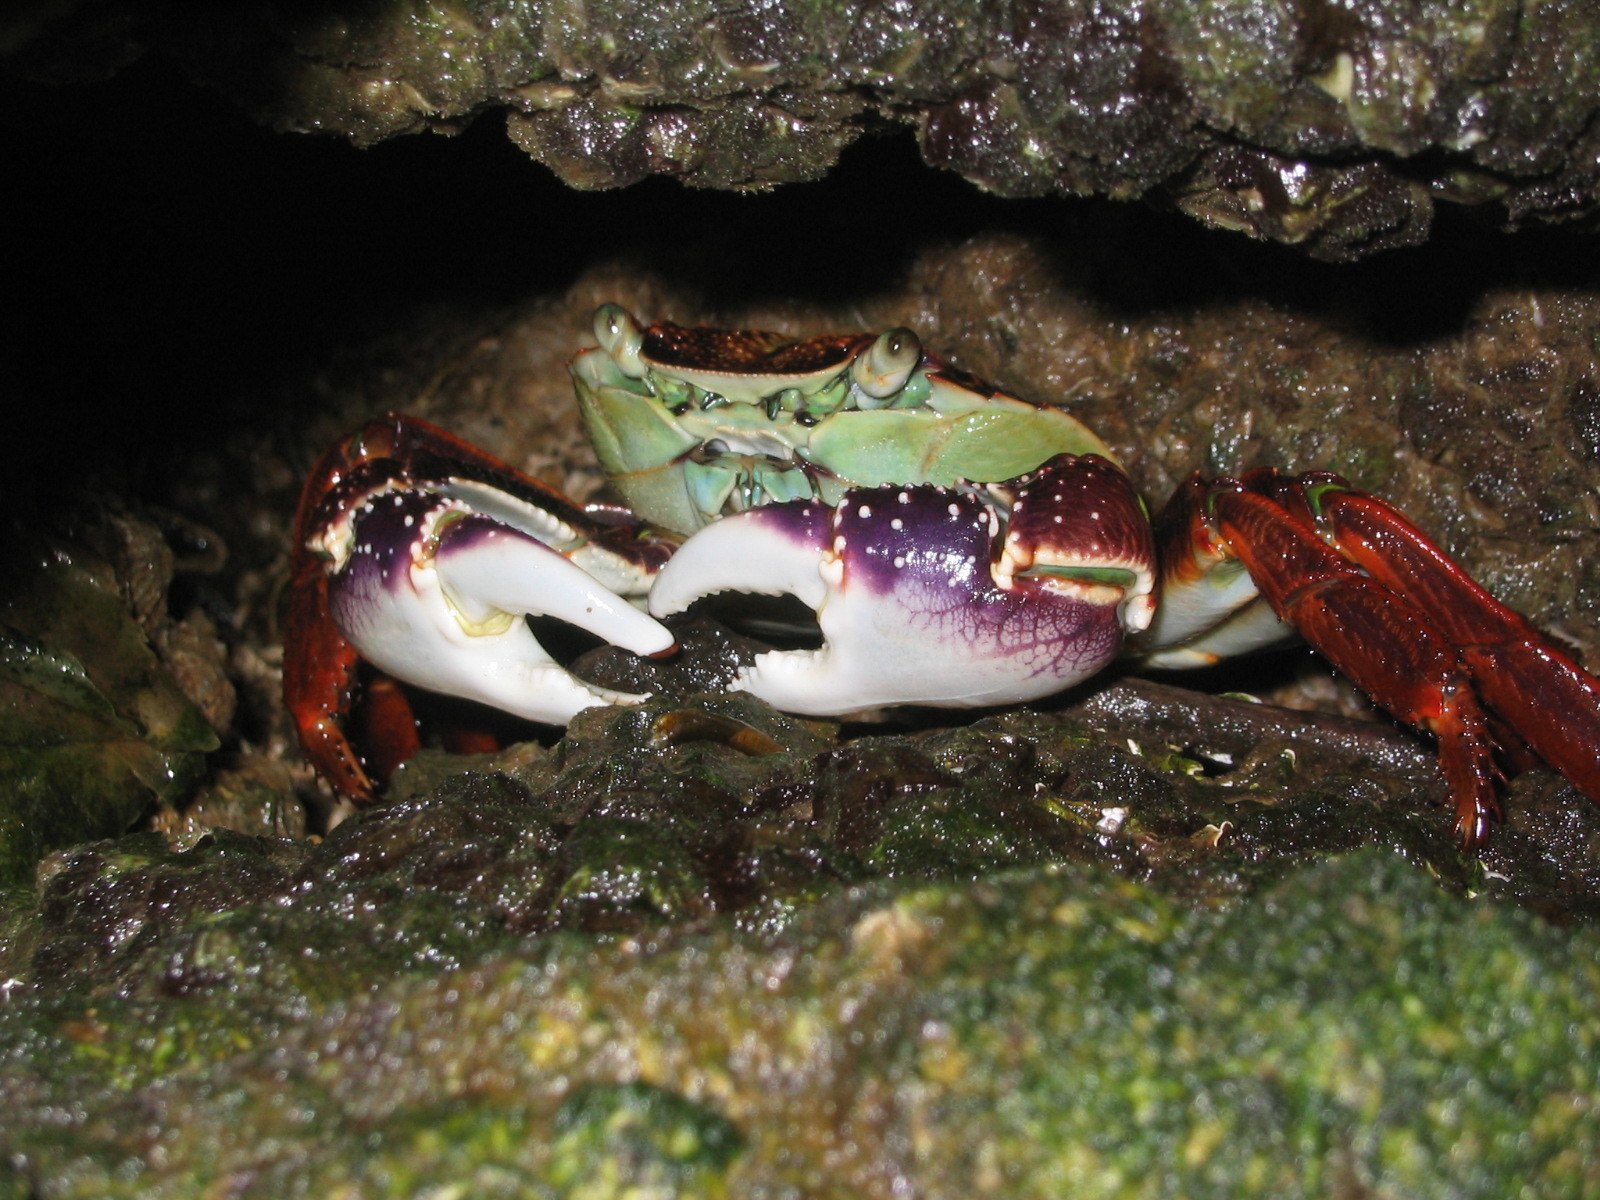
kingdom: Animalia
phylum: Arthropoda
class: Malacostraca
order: Decapoda
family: Grapsidae
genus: Leptograpsus
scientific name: Leptograpsus variegatus
